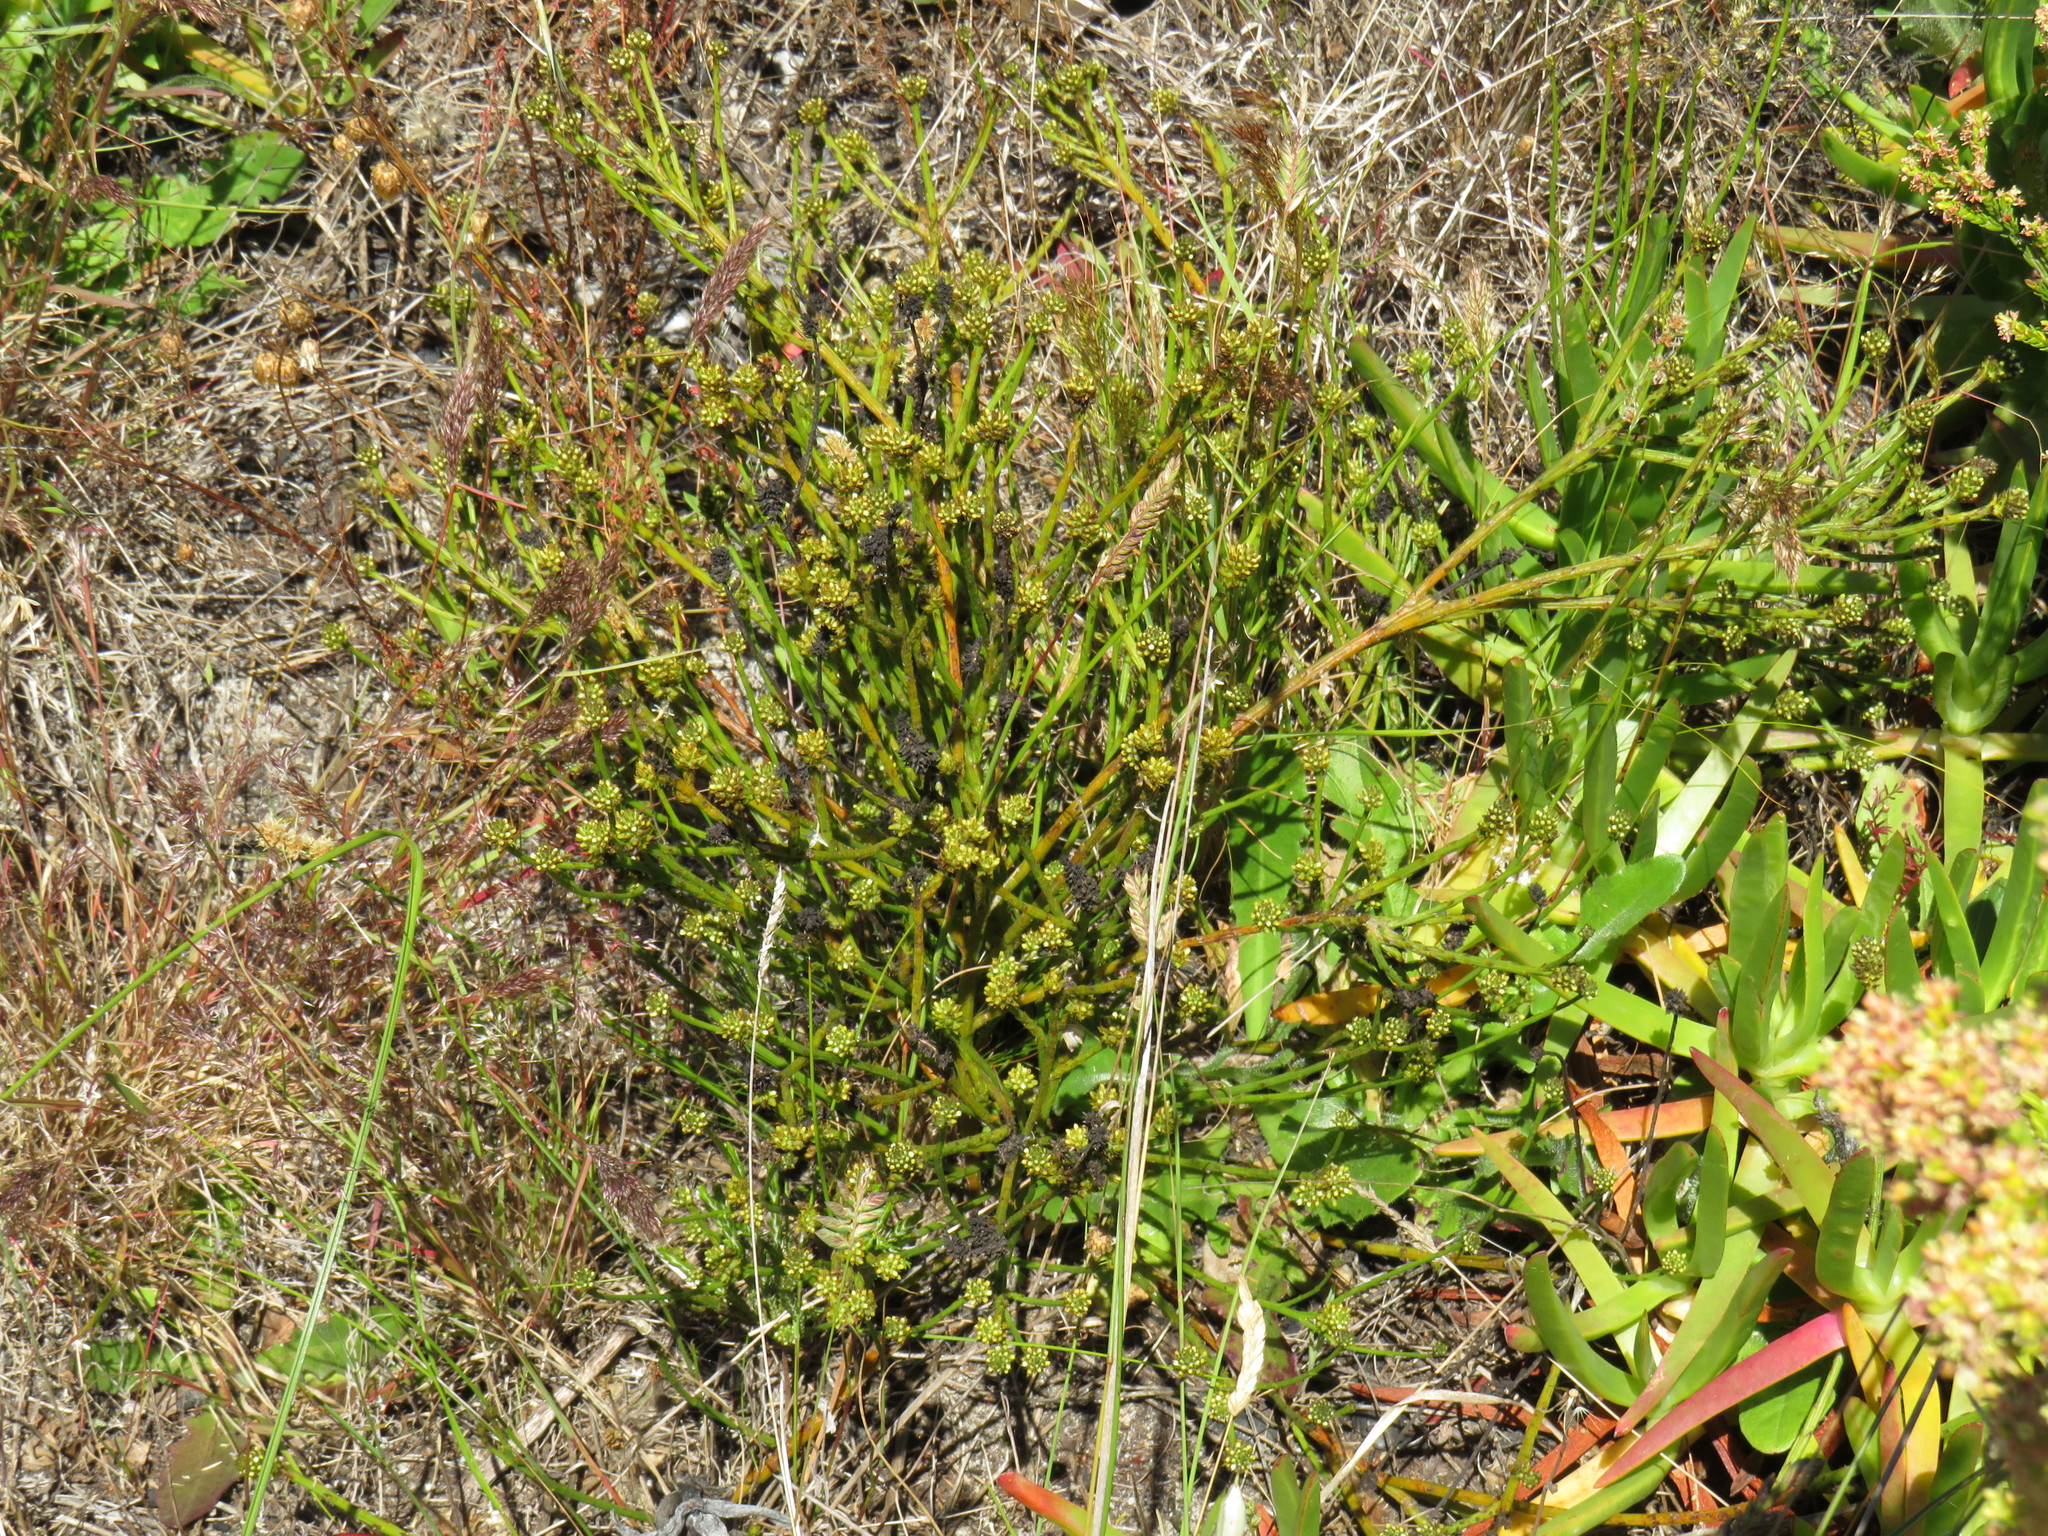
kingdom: Plantae
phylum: Tracheophyta
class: Magnoliopsida
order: Santalales
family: Thesiaceae
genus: Thesium
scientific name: Thesium aggregatum
